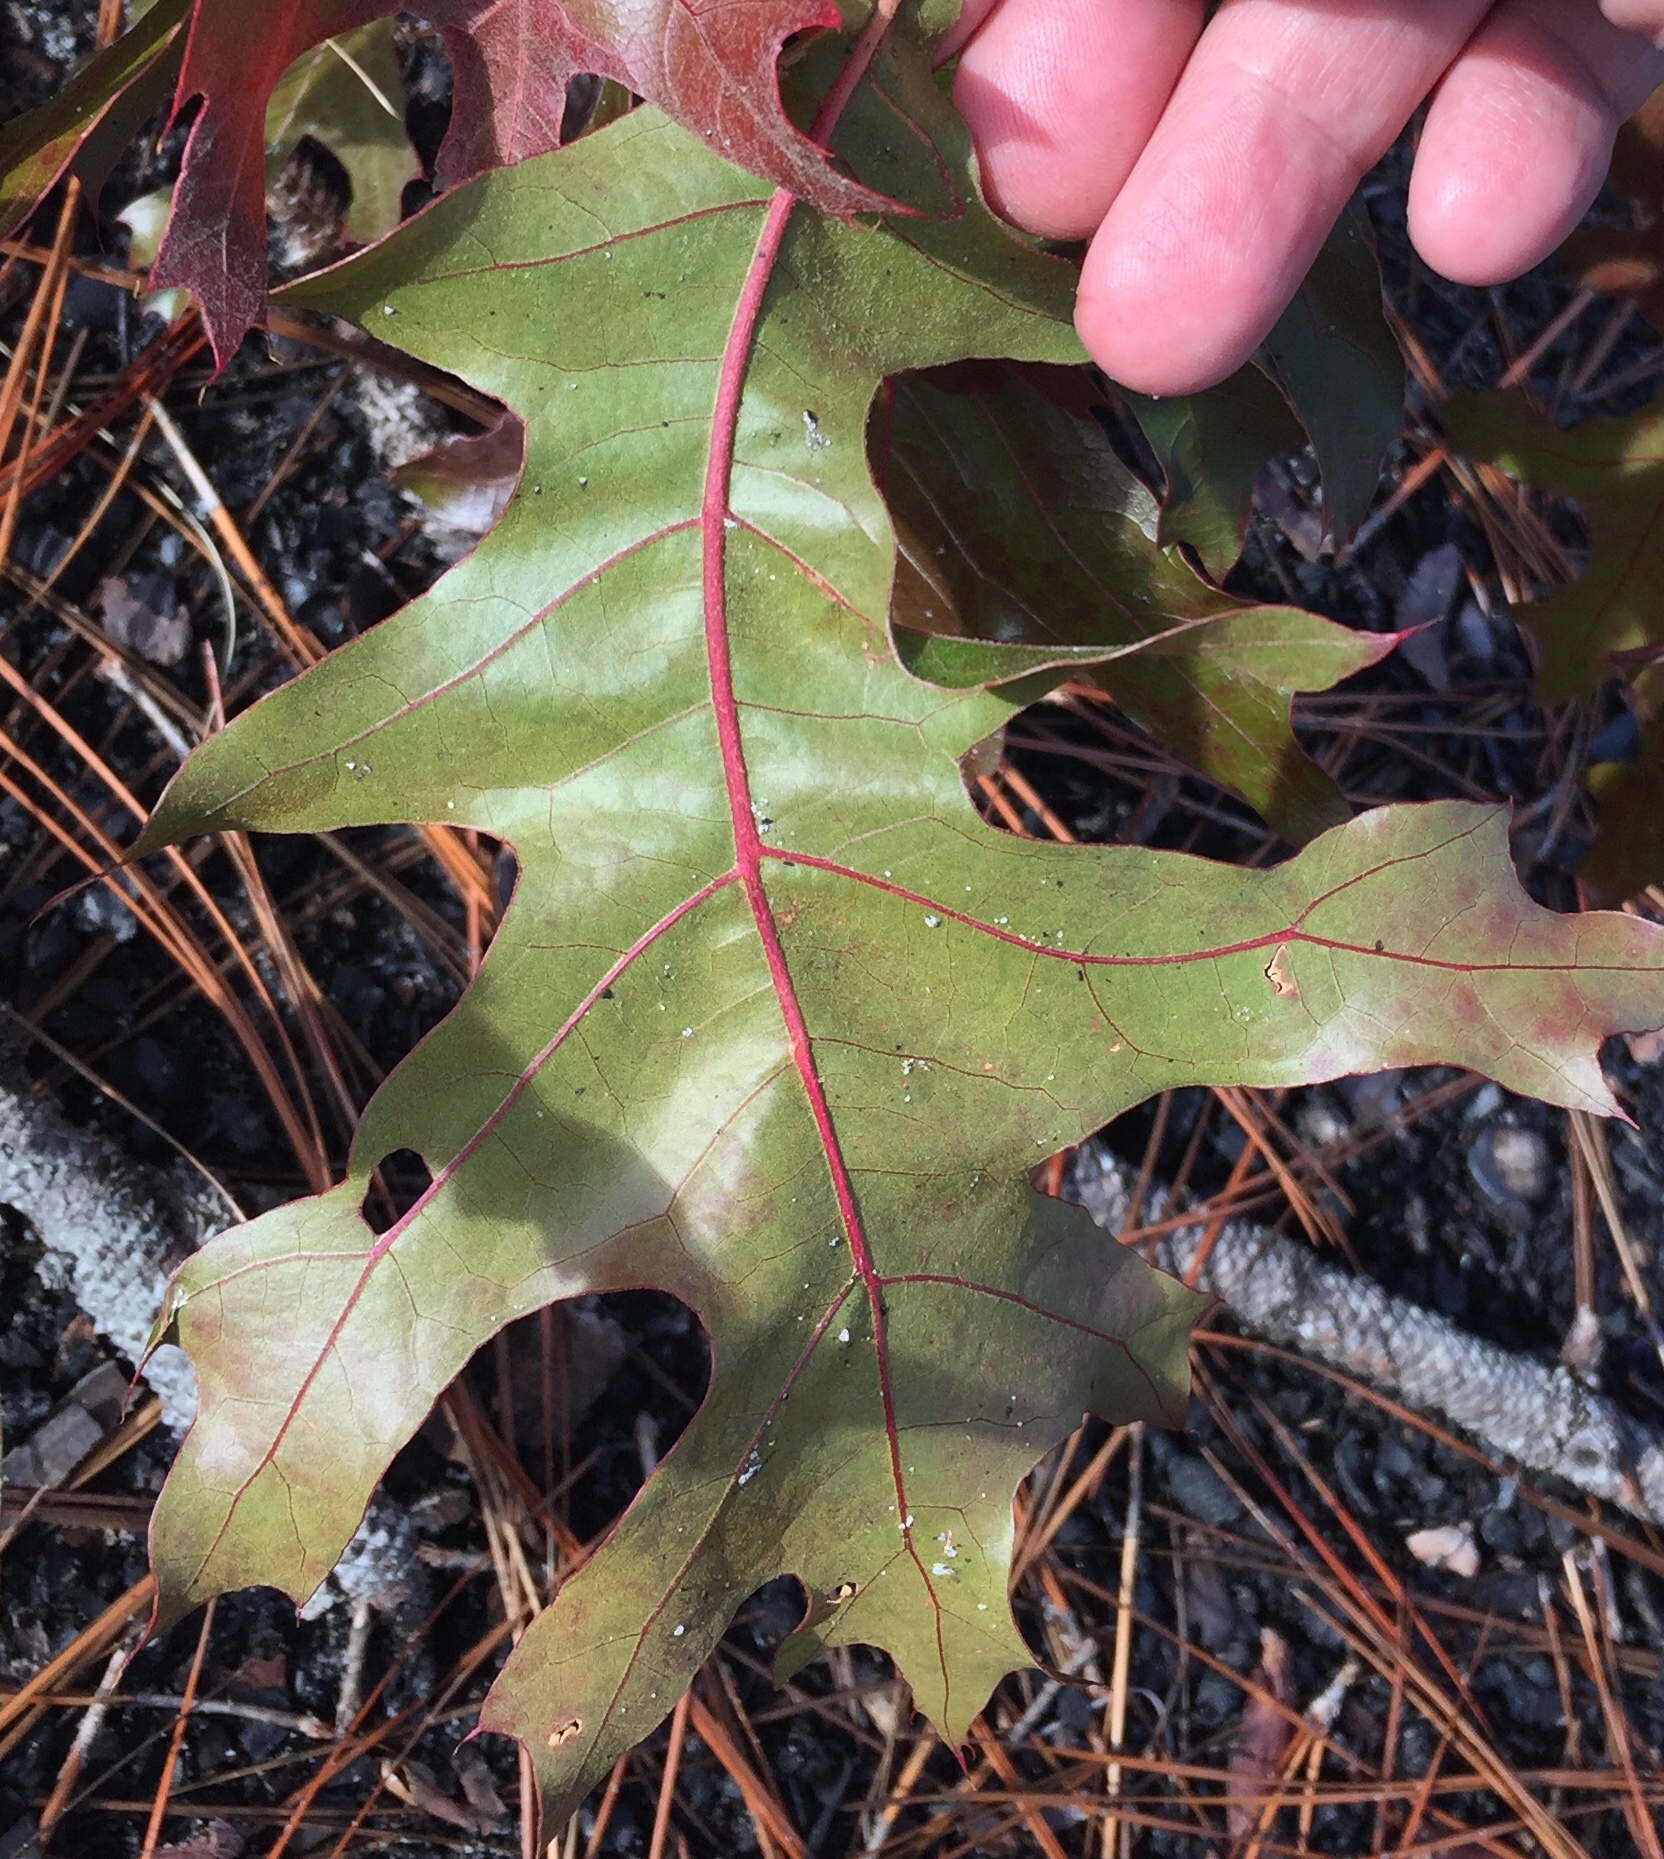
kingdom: Plantae
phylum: Tracheophyta
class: Magnoliopsida
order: Fagales
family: Fagaceae
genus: Quercus
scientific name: Quercus laevis
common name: Turkey oak
